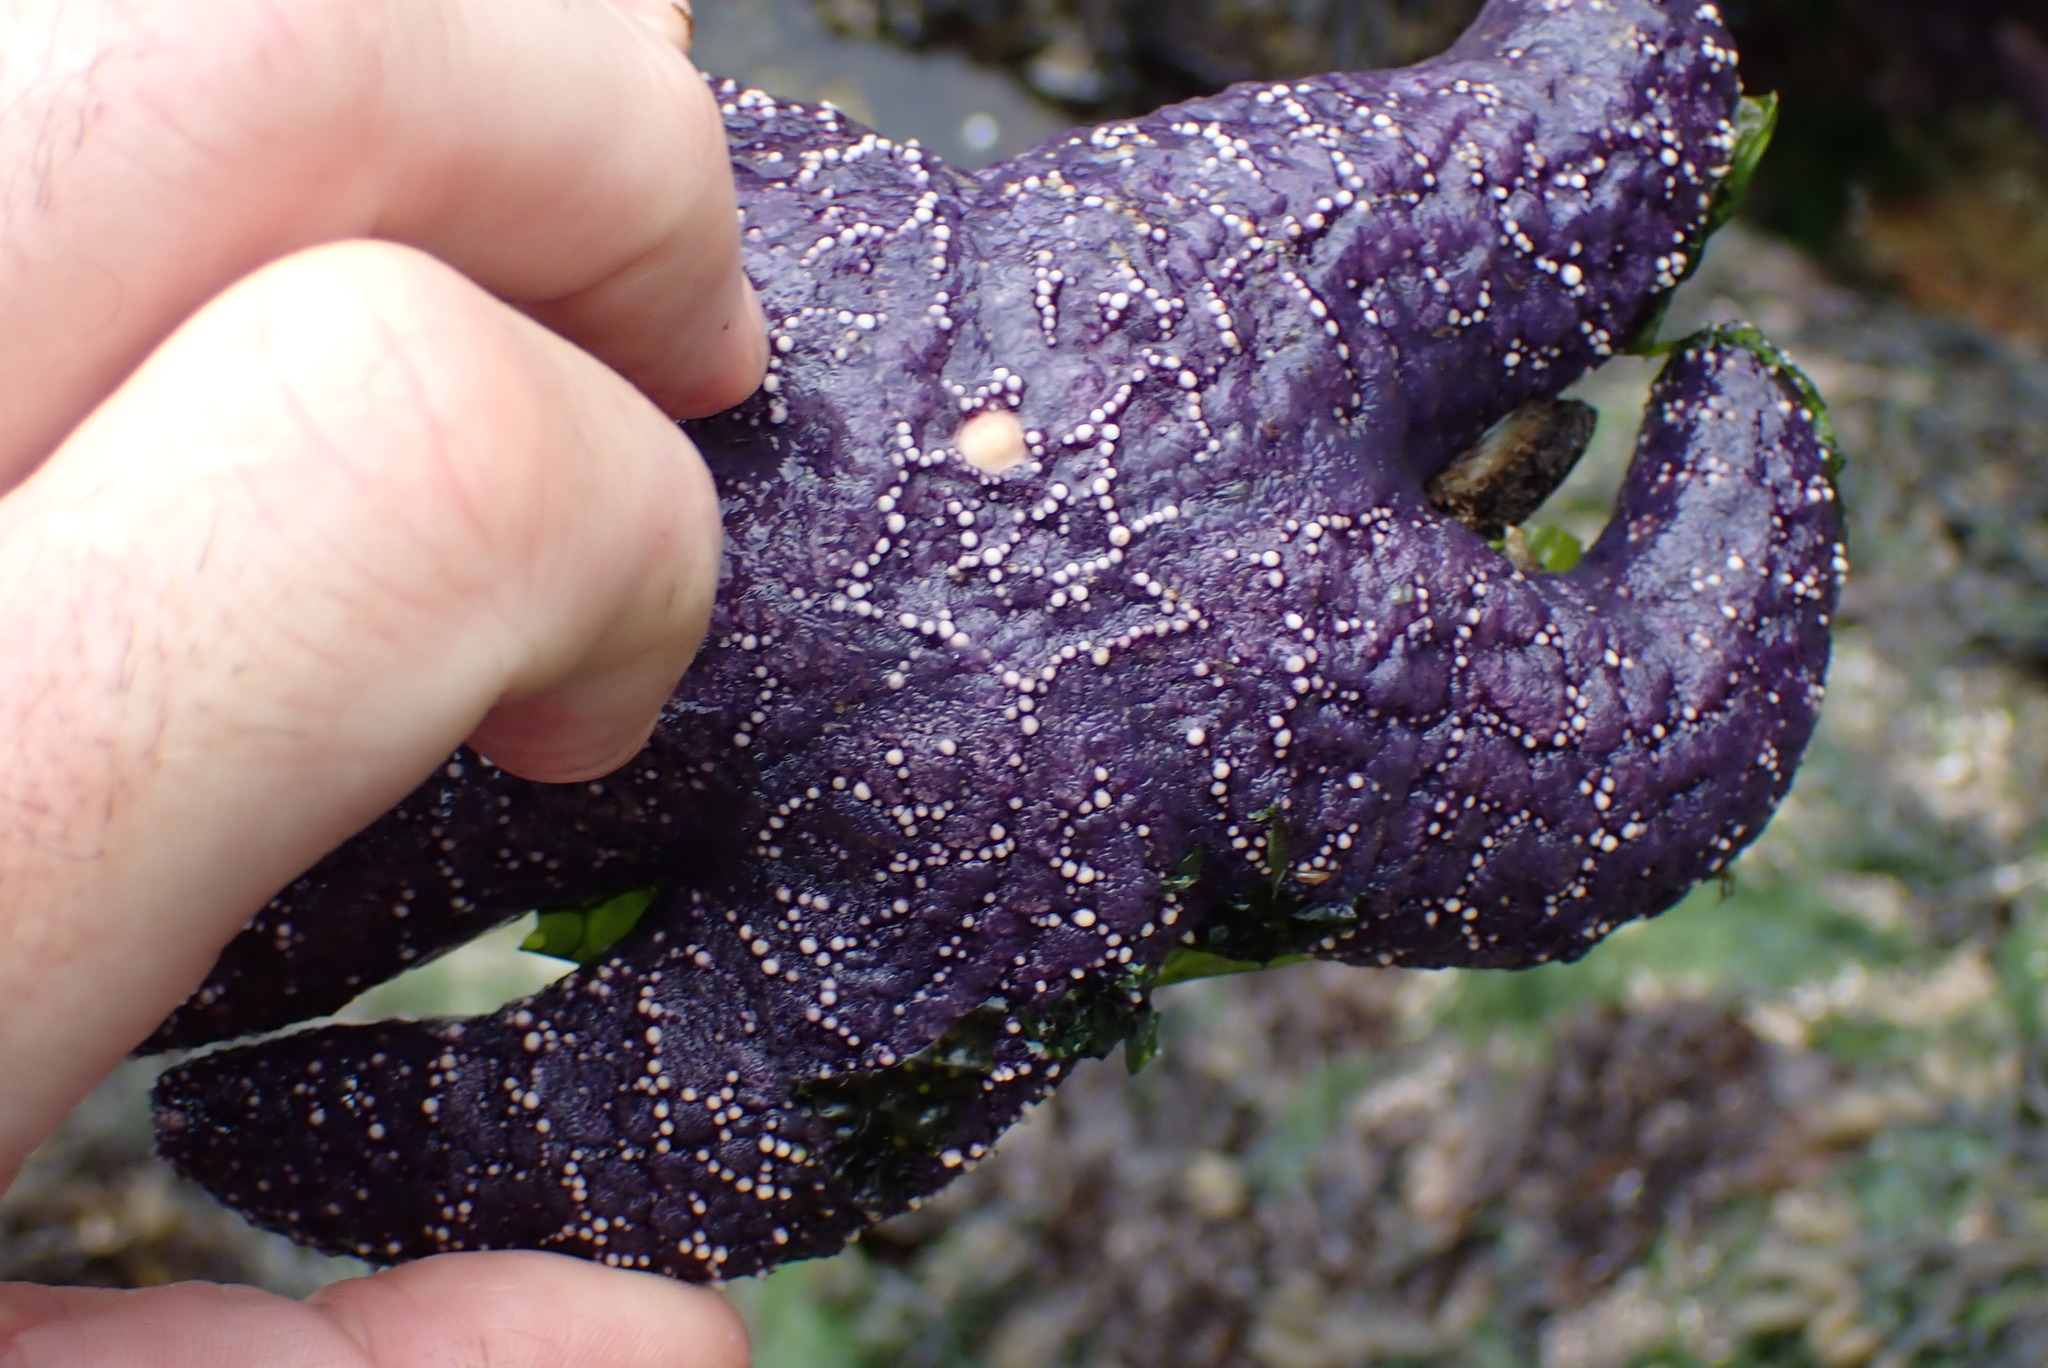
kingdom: Animalia
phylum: Echinodermata
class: Asteroidea
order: Forcipulatida
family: Asteriidae
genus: Pisaster
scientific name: Pisaster ochraceus
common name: Ochre stars
